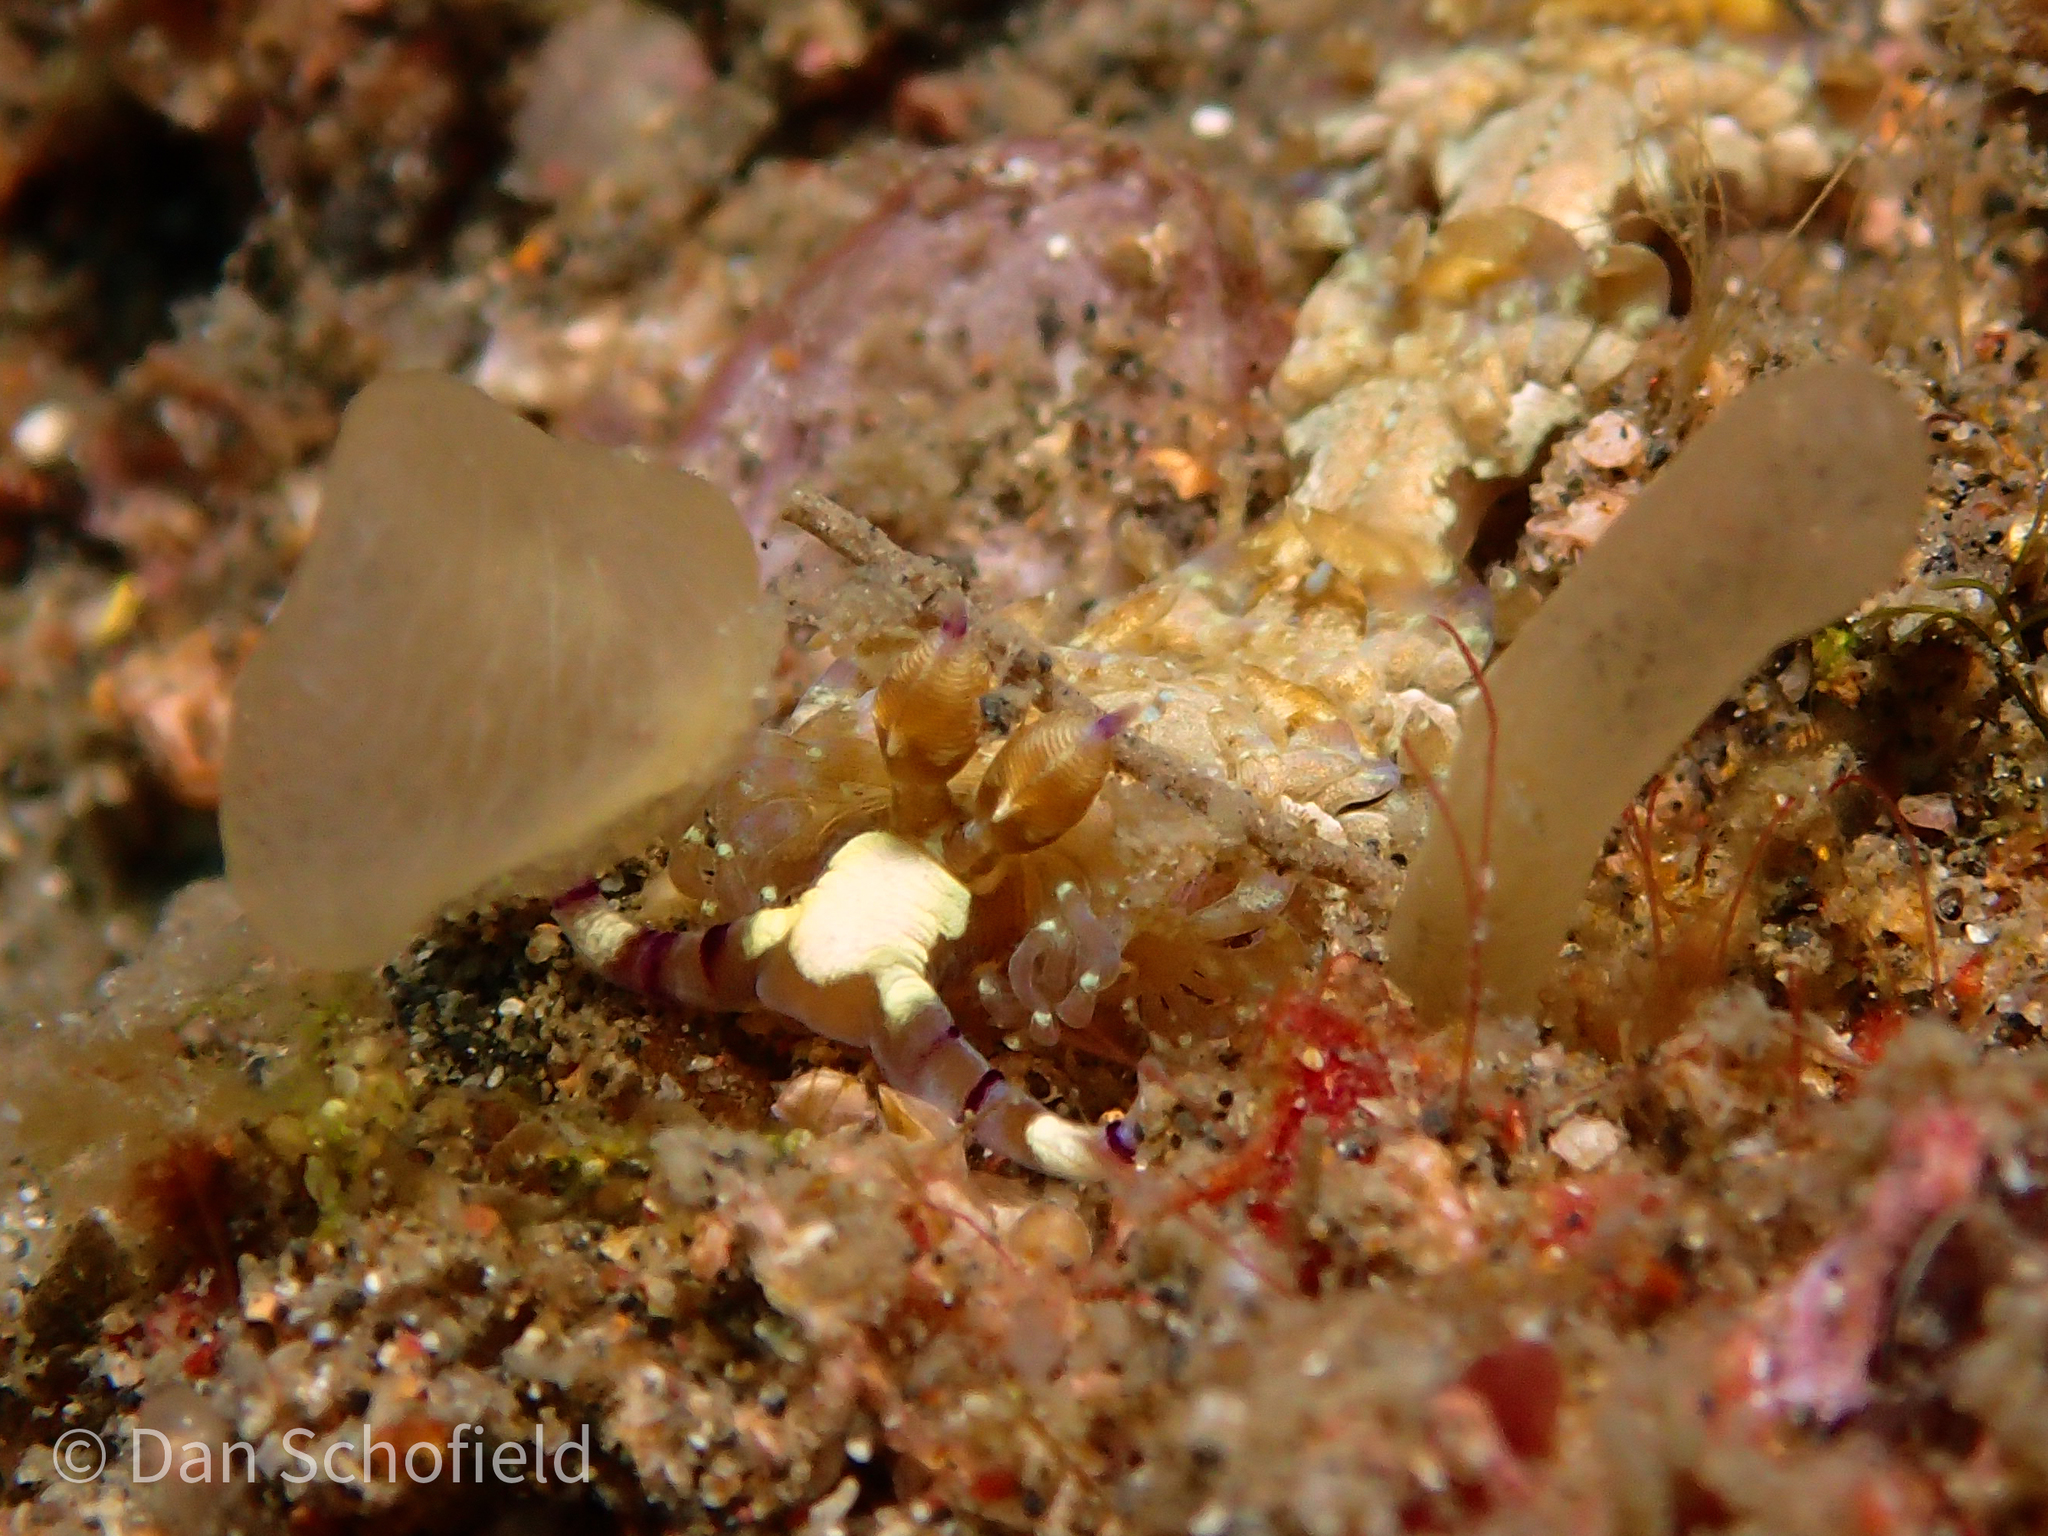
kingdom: Animalia
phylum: Mollusca
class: Gastropoda
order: Nudibranchia
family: Facelinidae
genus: Pteraeolidia
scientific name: Pteraeolidia semperi
